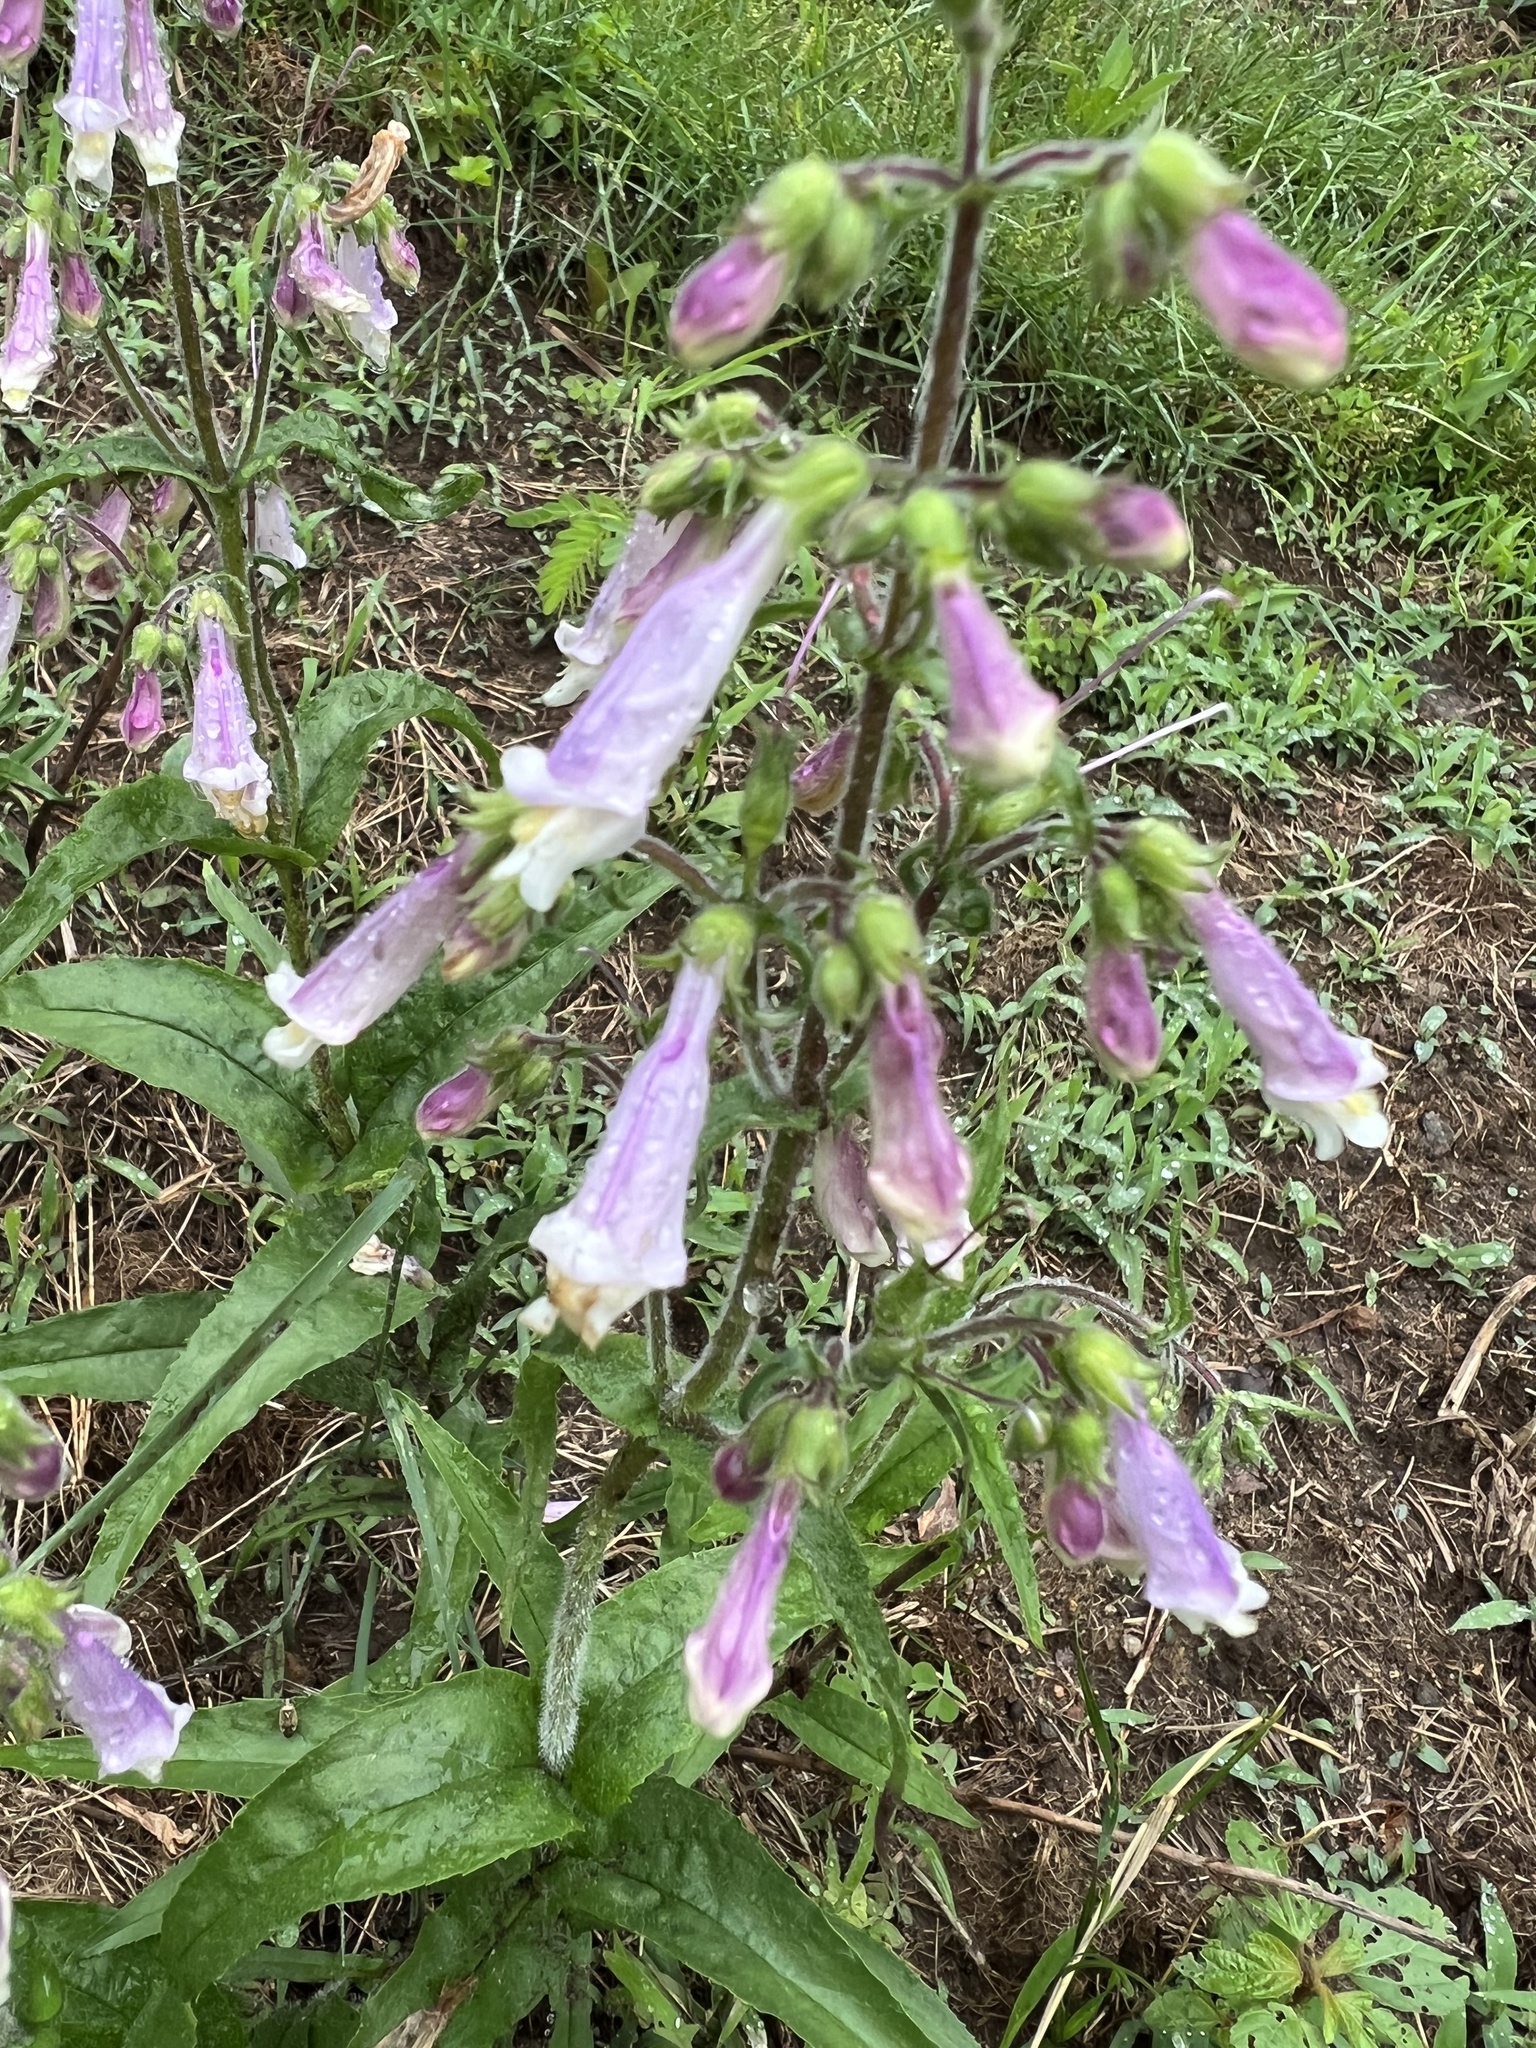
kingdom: Plantae
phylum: Tracheophyta
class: Magnoliopsida
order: Lamiales
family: Plantaginaceae
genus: Penstemon
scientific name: Penstemon hirsutus
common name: Hairy beardtongue
